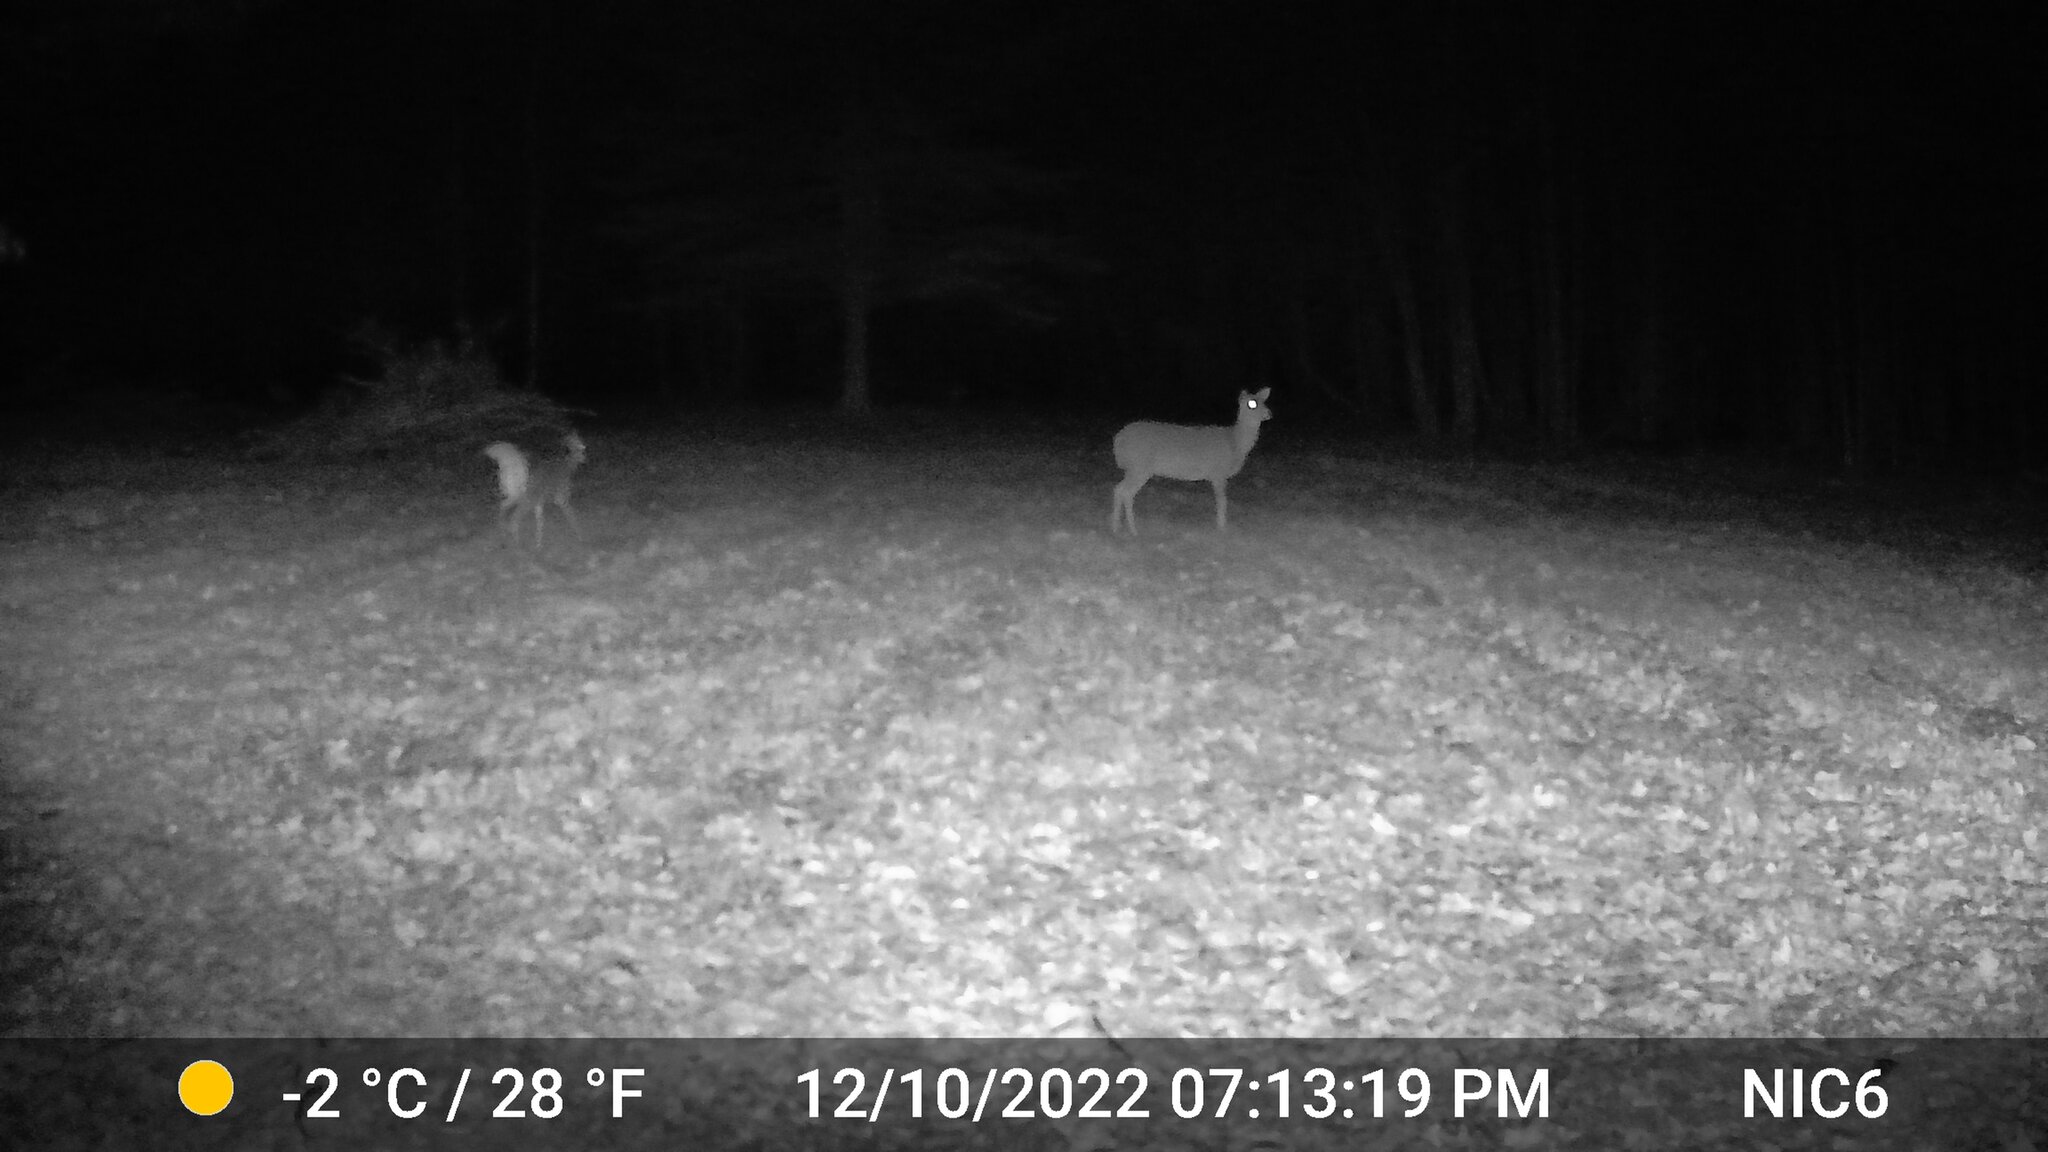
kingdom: Animalia
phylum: Chordata
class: Mammalia
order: Artiodactyla
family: Cervidae
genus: Odocoileus
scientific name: Odocoileus virginianus
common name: White-tailed deer
